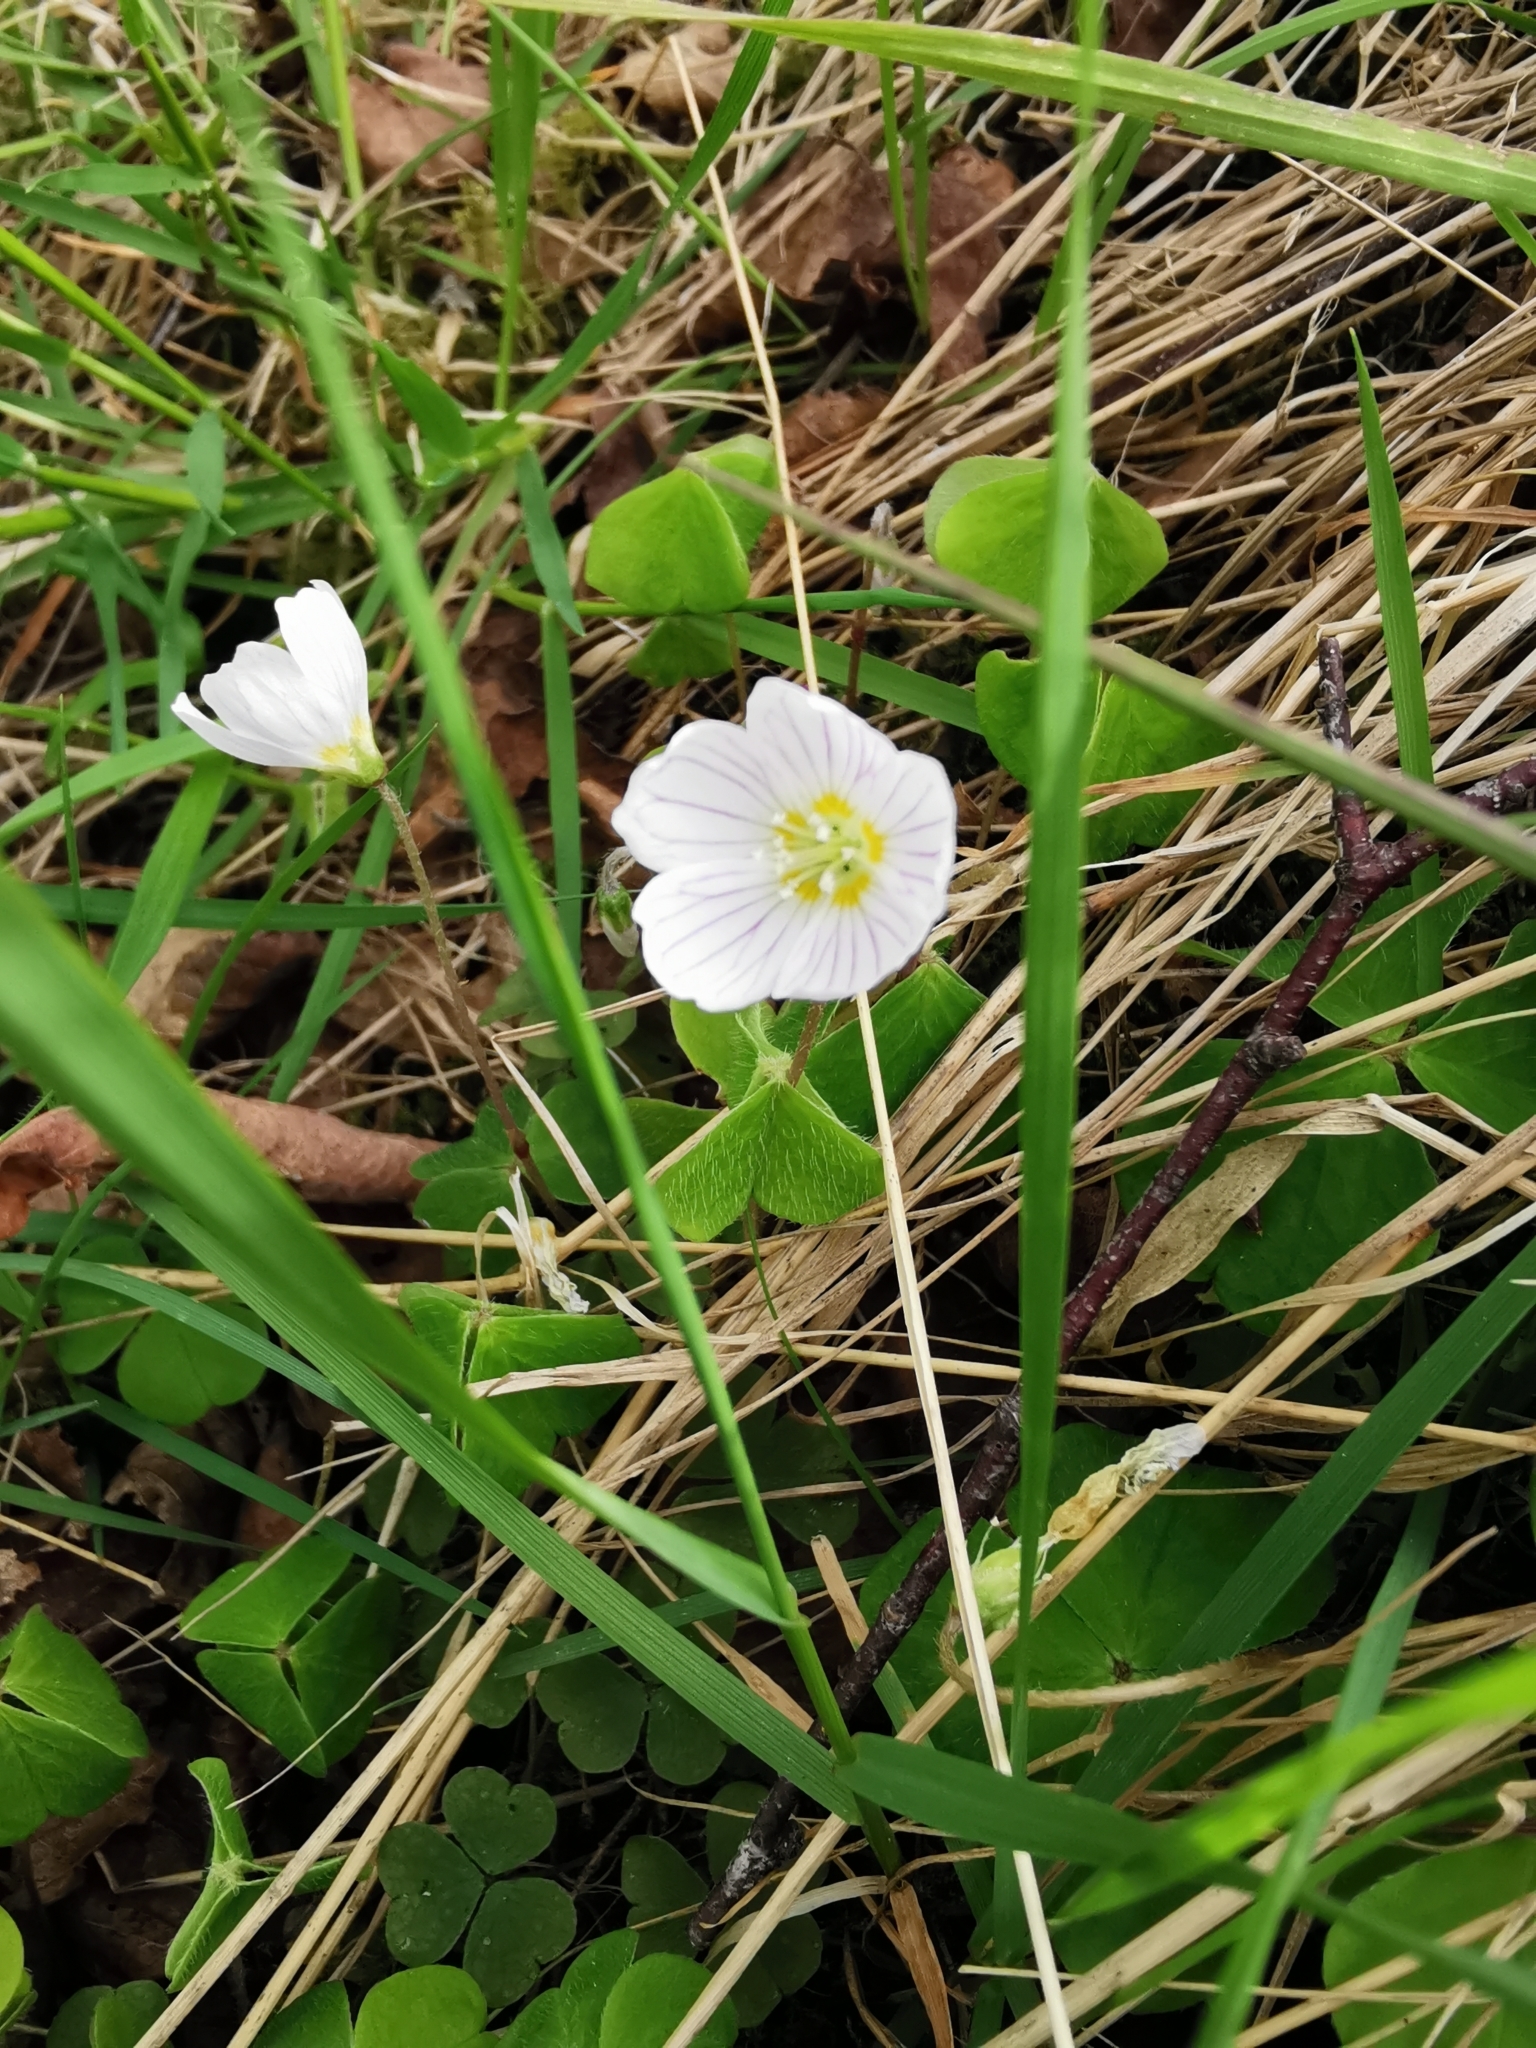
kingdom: Plantae
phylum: Tracheophyta
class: Magnoliopsida
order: Oxalidales
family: Oxalidaceae
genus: Oxalis
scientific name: Oxalis acetosella
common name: Wood-sorrel
